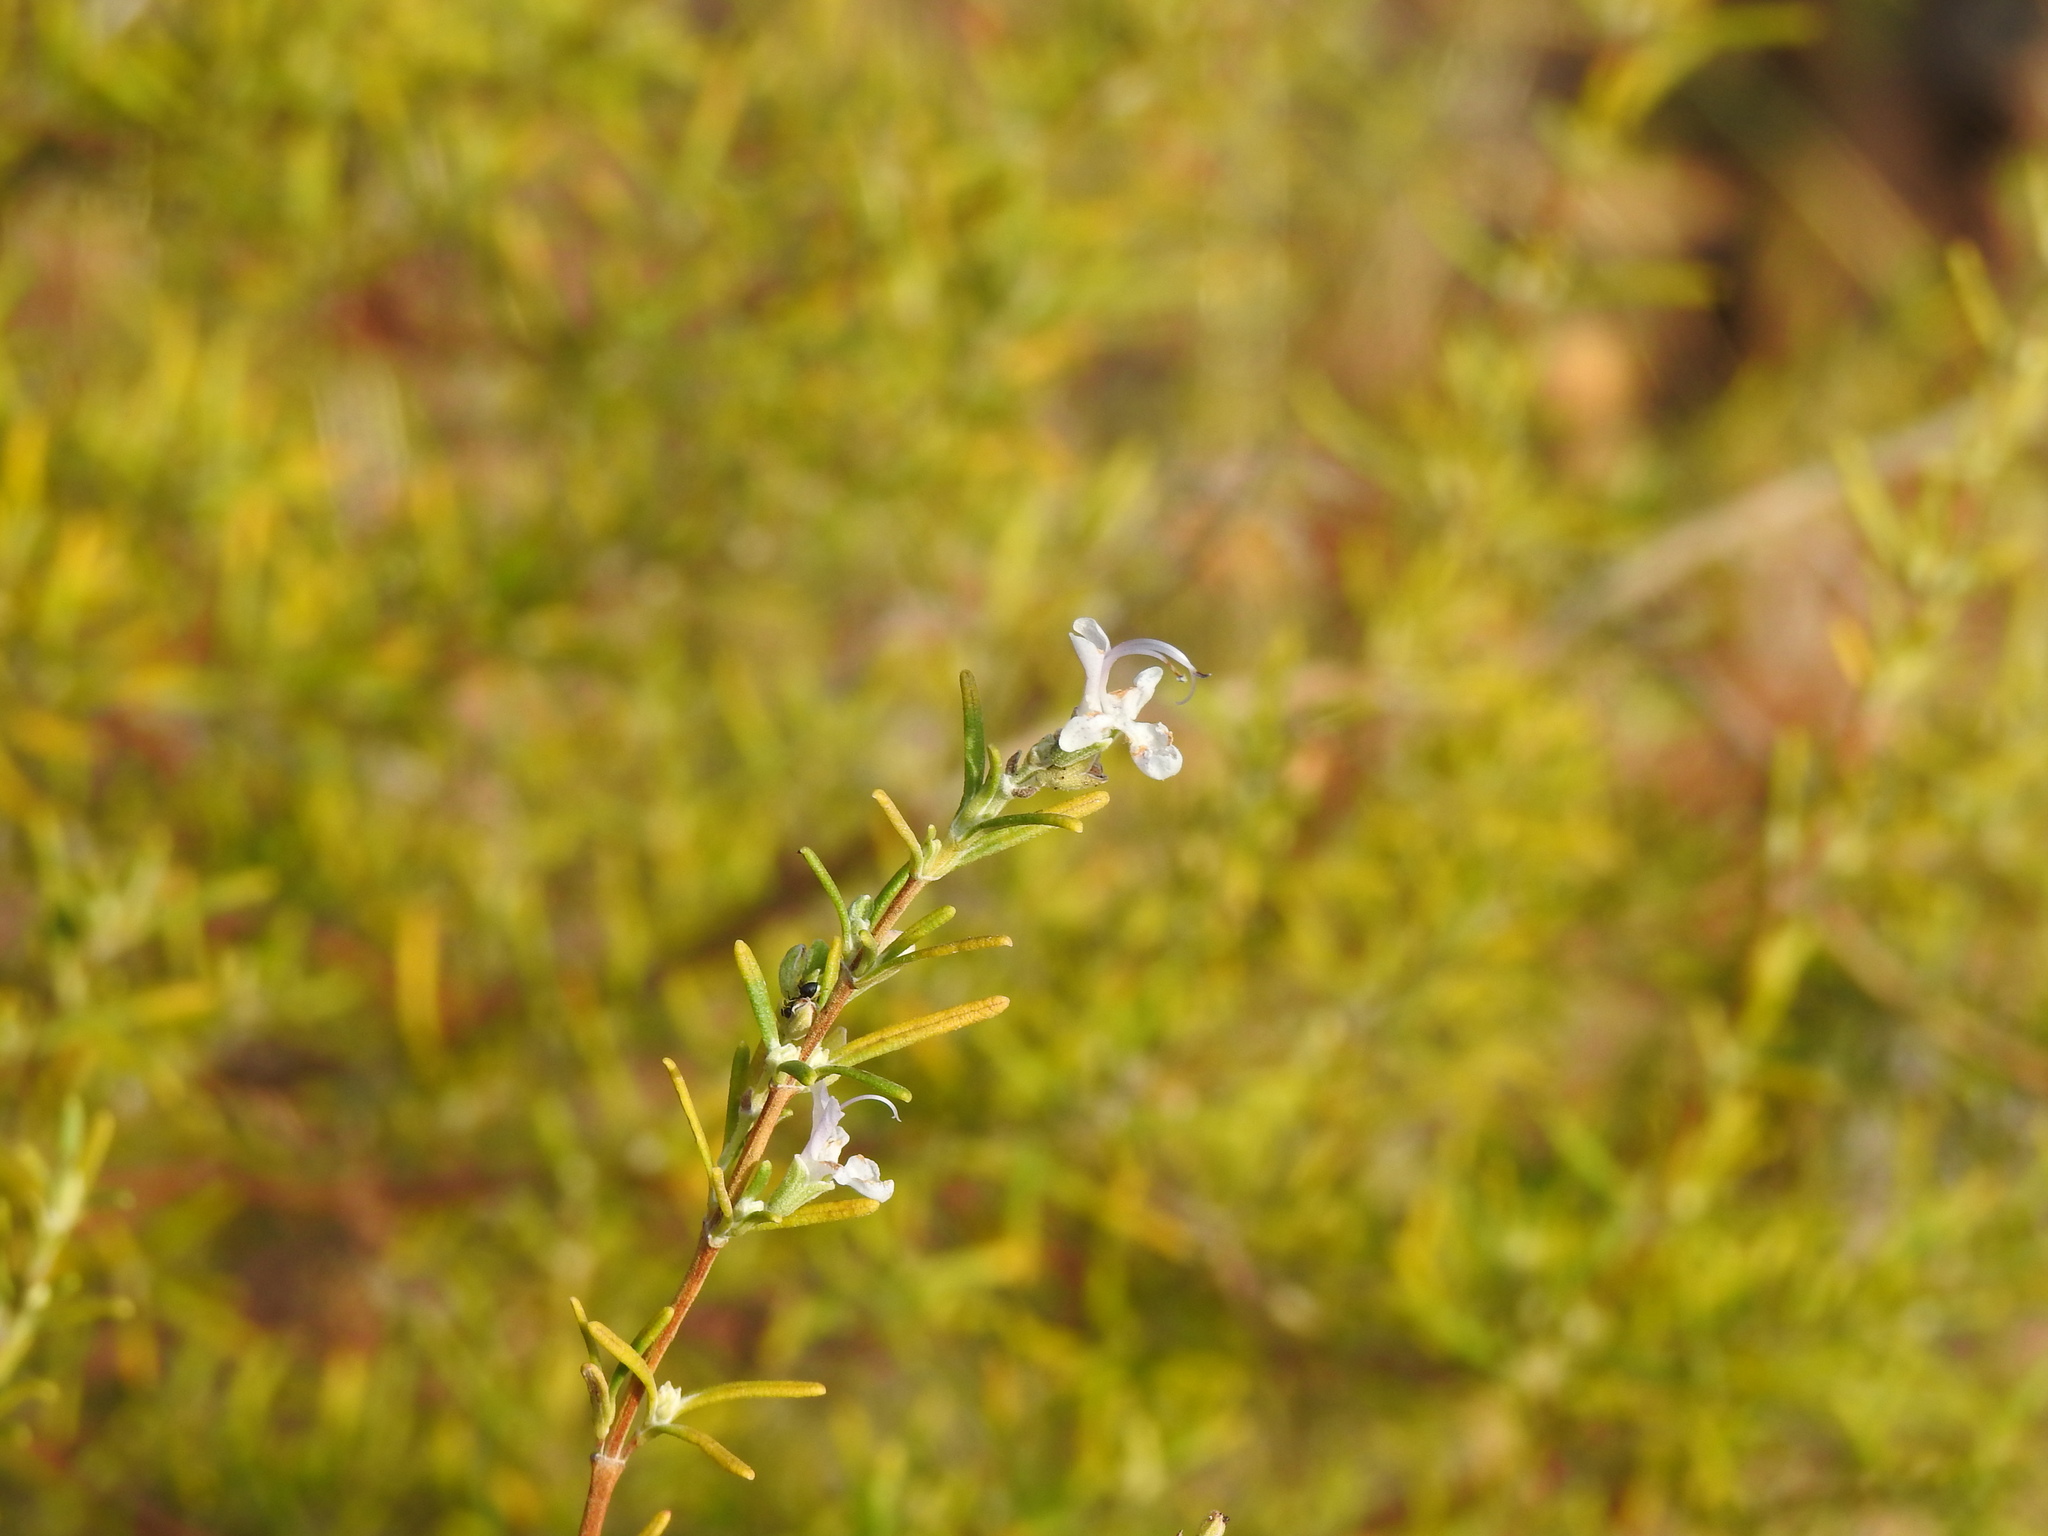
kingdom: Plantae
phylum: Tracheophyta
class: Magnoliopsida
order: Lamiales
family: Lamiaceae
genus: Salvia
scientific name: Salvia rosmarinus
